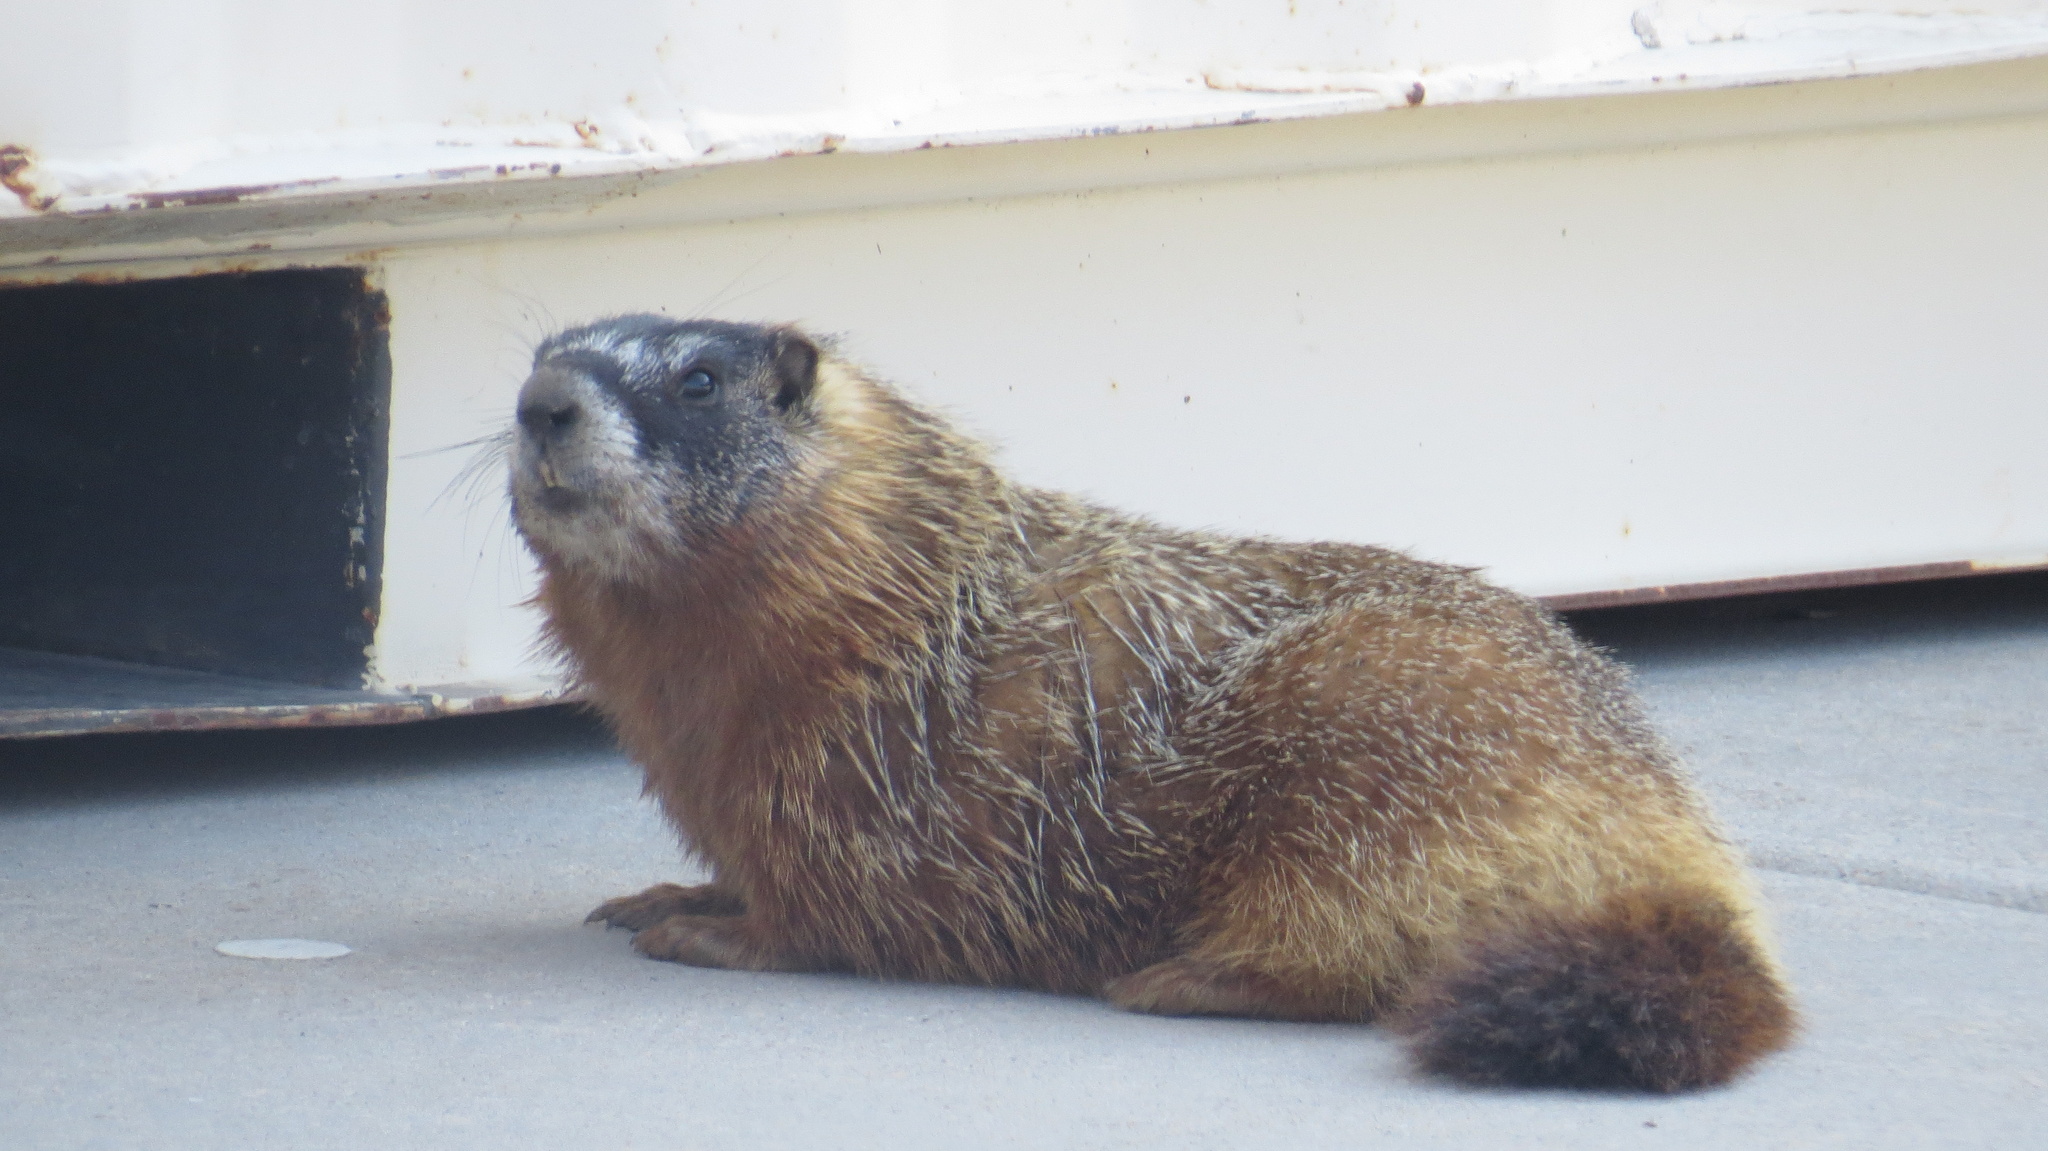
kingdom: Animalia
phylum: Chordata
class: Mammalia
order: Rodentia
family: Sciuridae
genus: Marmota
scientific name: Marmota flaviventris
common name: Yellow-bellied marmot
